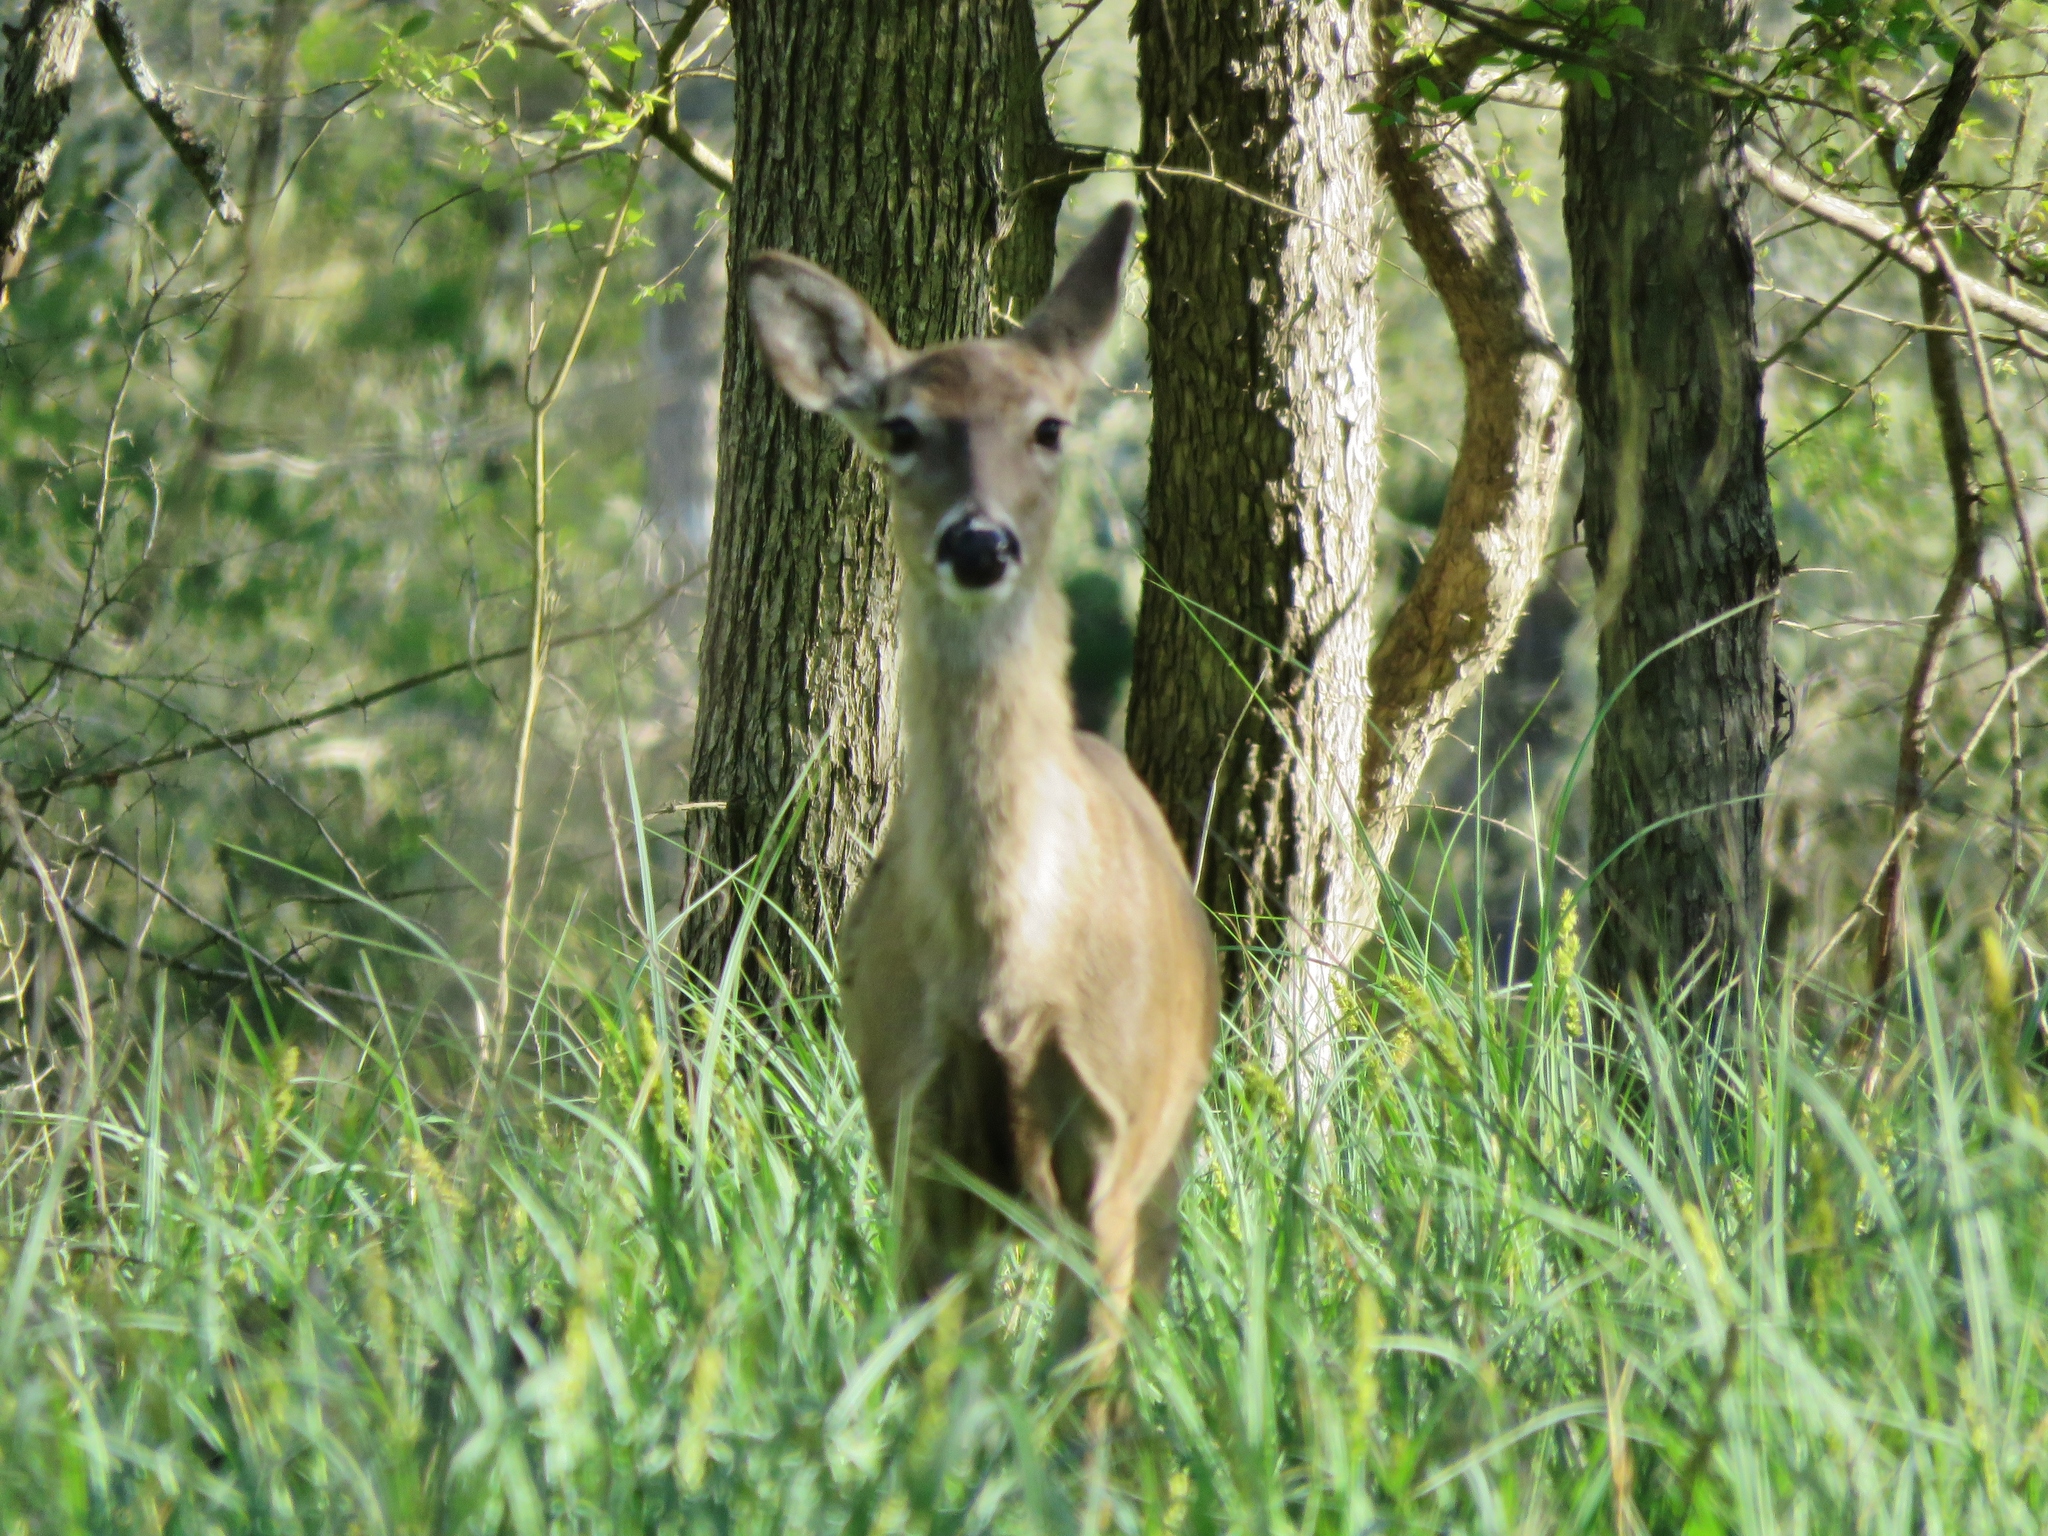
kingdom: Animalia
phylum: Chordata
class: Mammalia
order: Artiodactyla
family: Cervidae
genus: Odocoileus
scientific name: Odocoileus virginianus
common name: White-tailed deer
